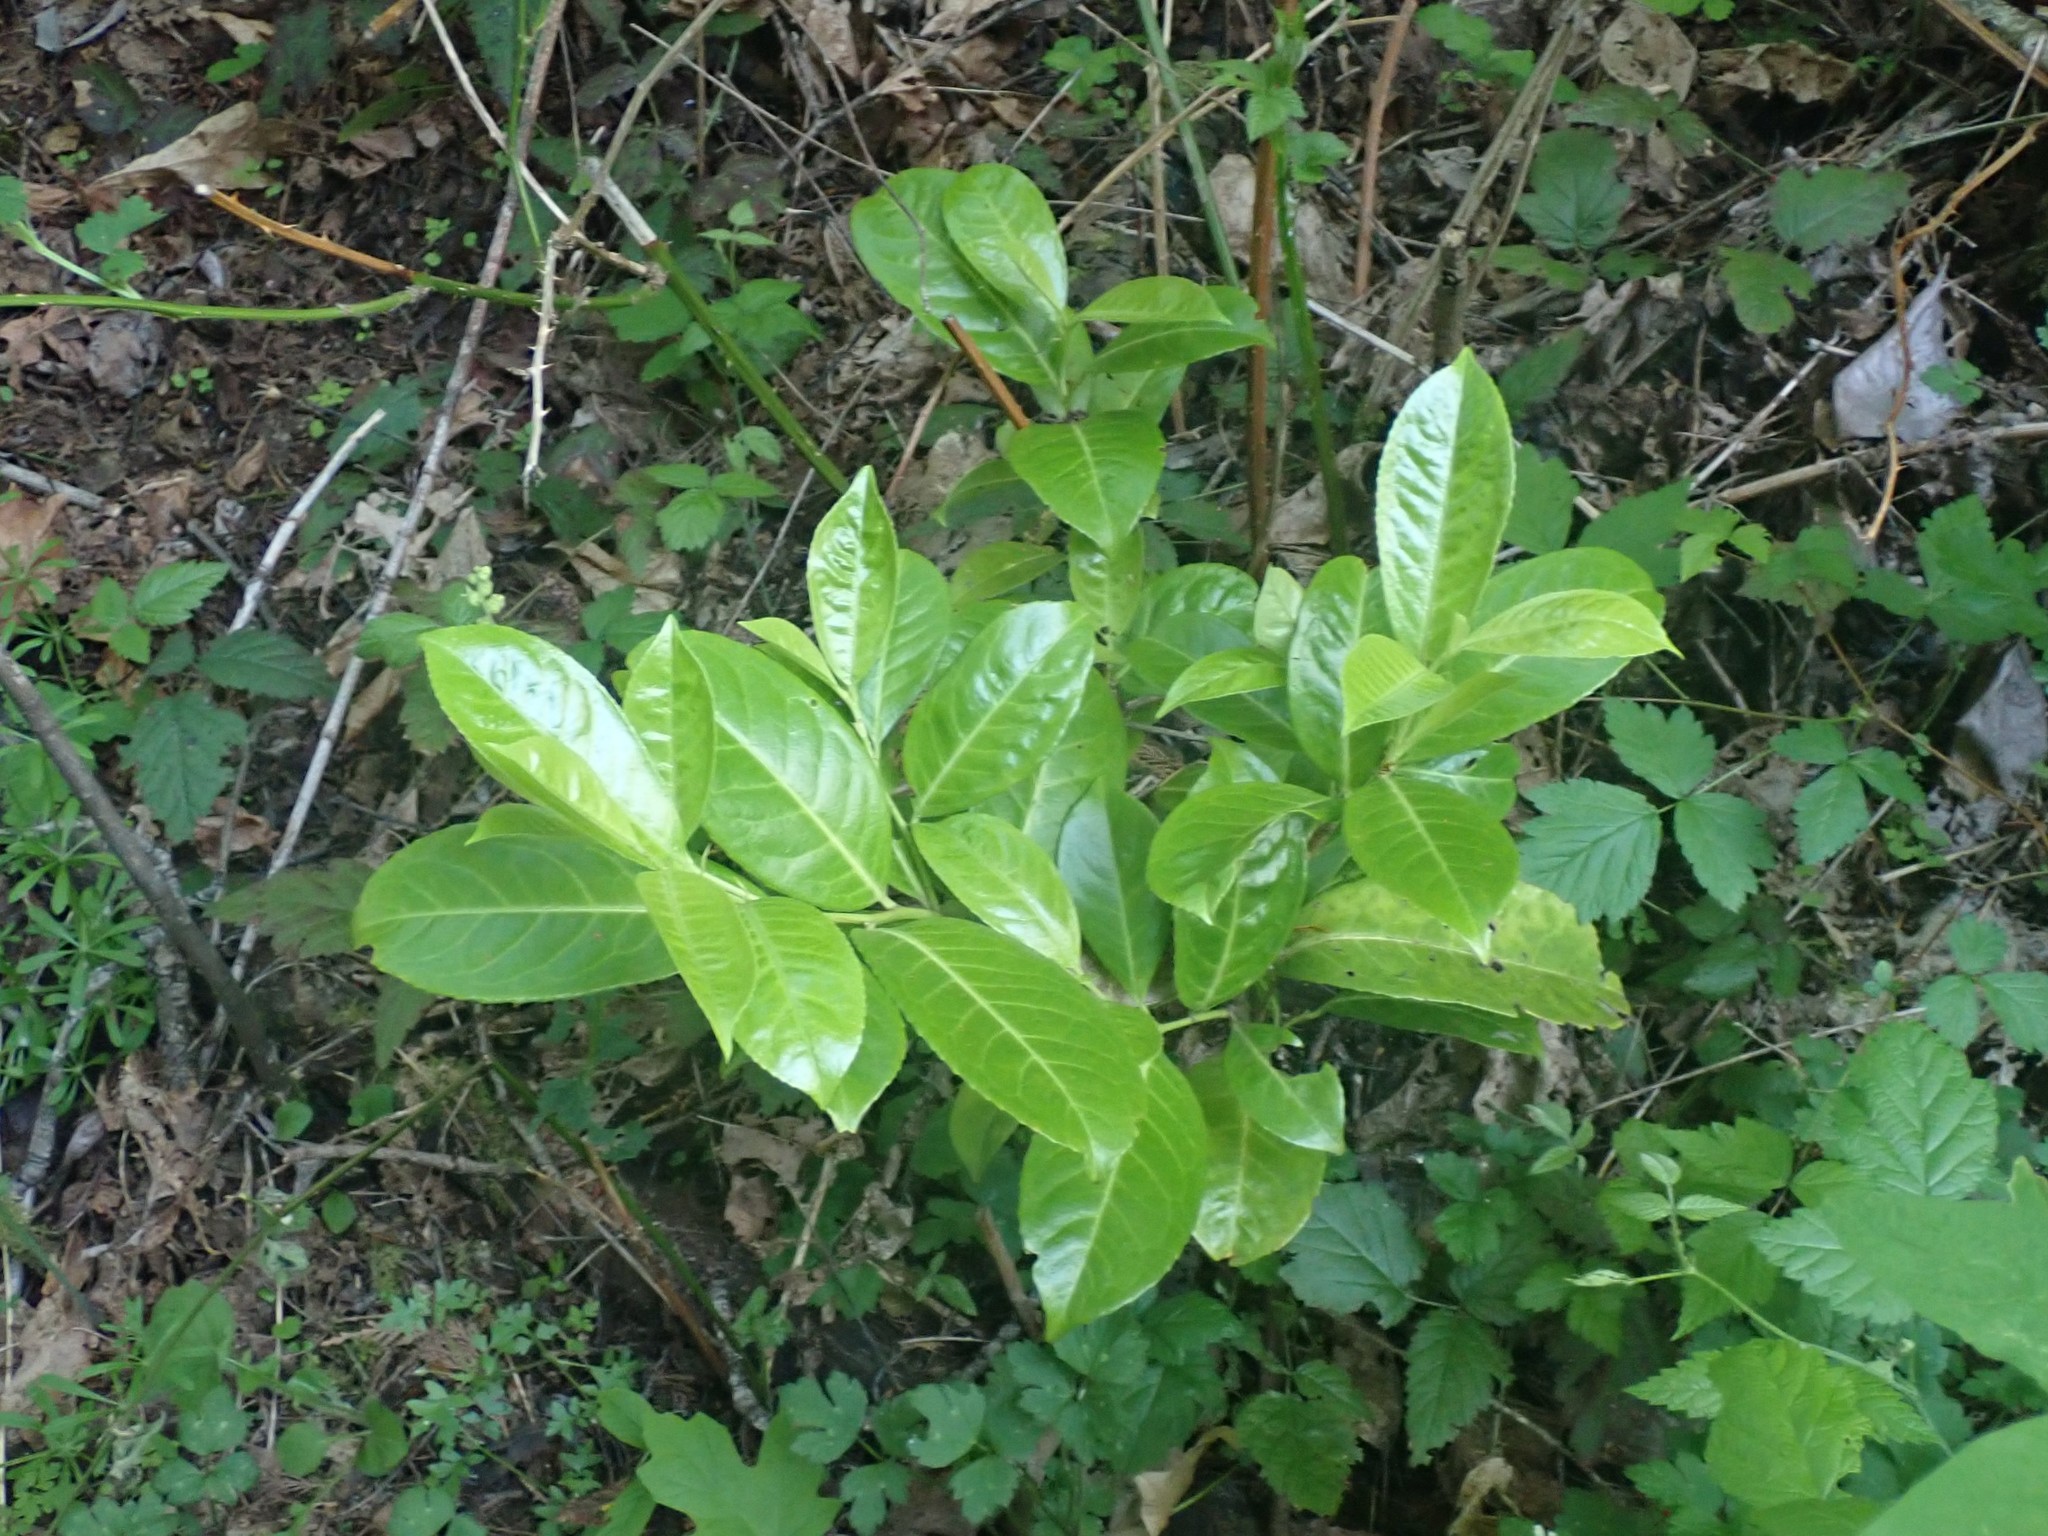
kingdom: Plantae
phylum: Tracheophyta
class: Magnoliopsida
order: Rosales
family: Rosaceae
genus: Prunus
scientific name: Prunus laurocerasus
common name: Cherry laurel
